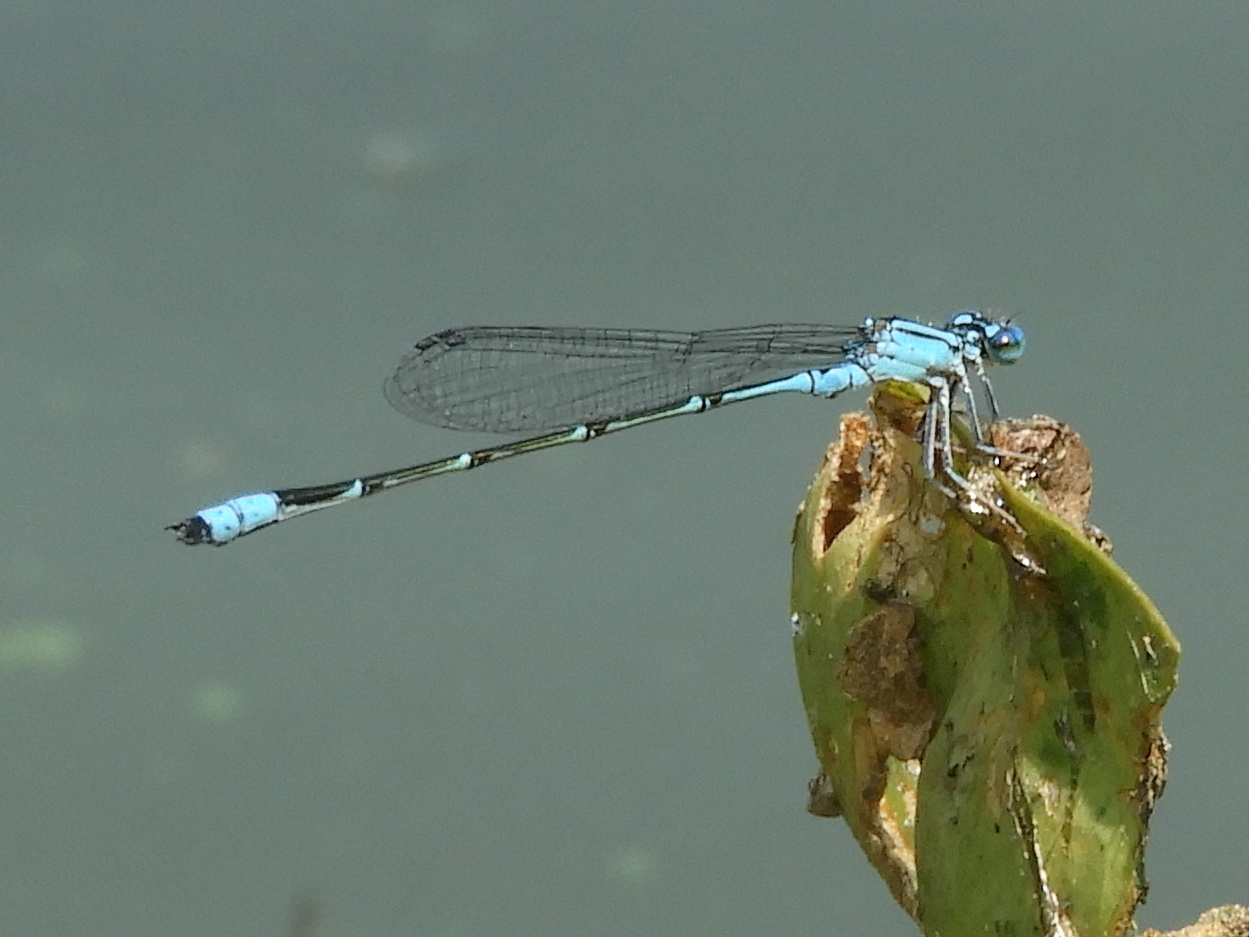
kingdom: Animalia
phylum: Arthropoda
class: Insecta
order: Odonata
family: Coenagrionidae
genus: Enallagma
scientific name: Enallagma traviatum
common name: Slender bluet
